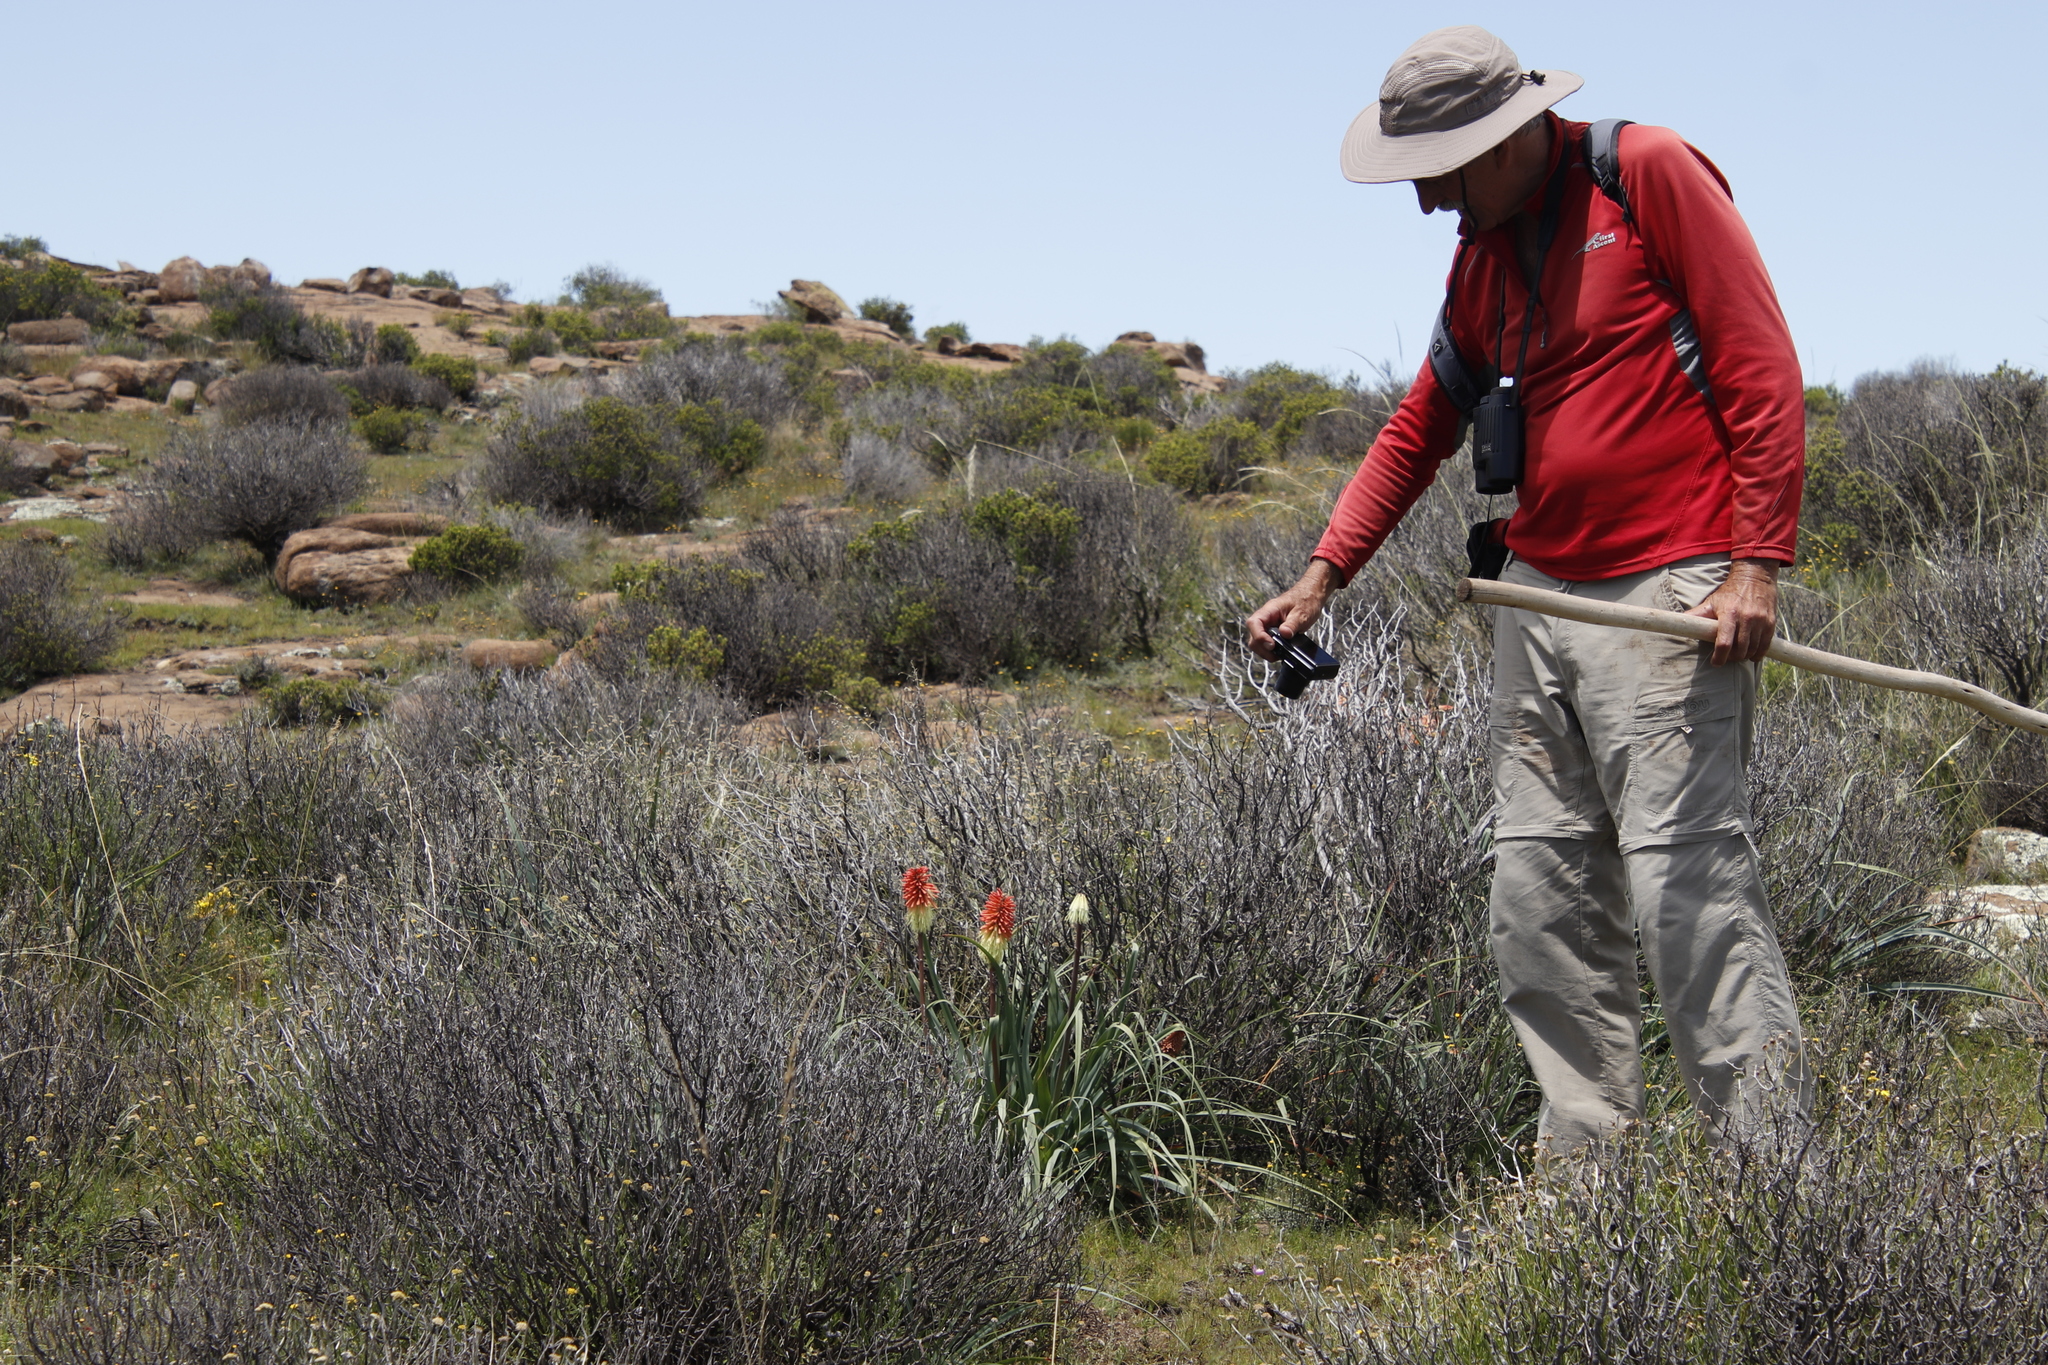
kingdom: Plantae
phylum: Tracheophyta
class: Liliopsida
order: Asparagales
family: Asphodelaceae
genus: Kniphofia
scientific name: Kniphofia caulescens
